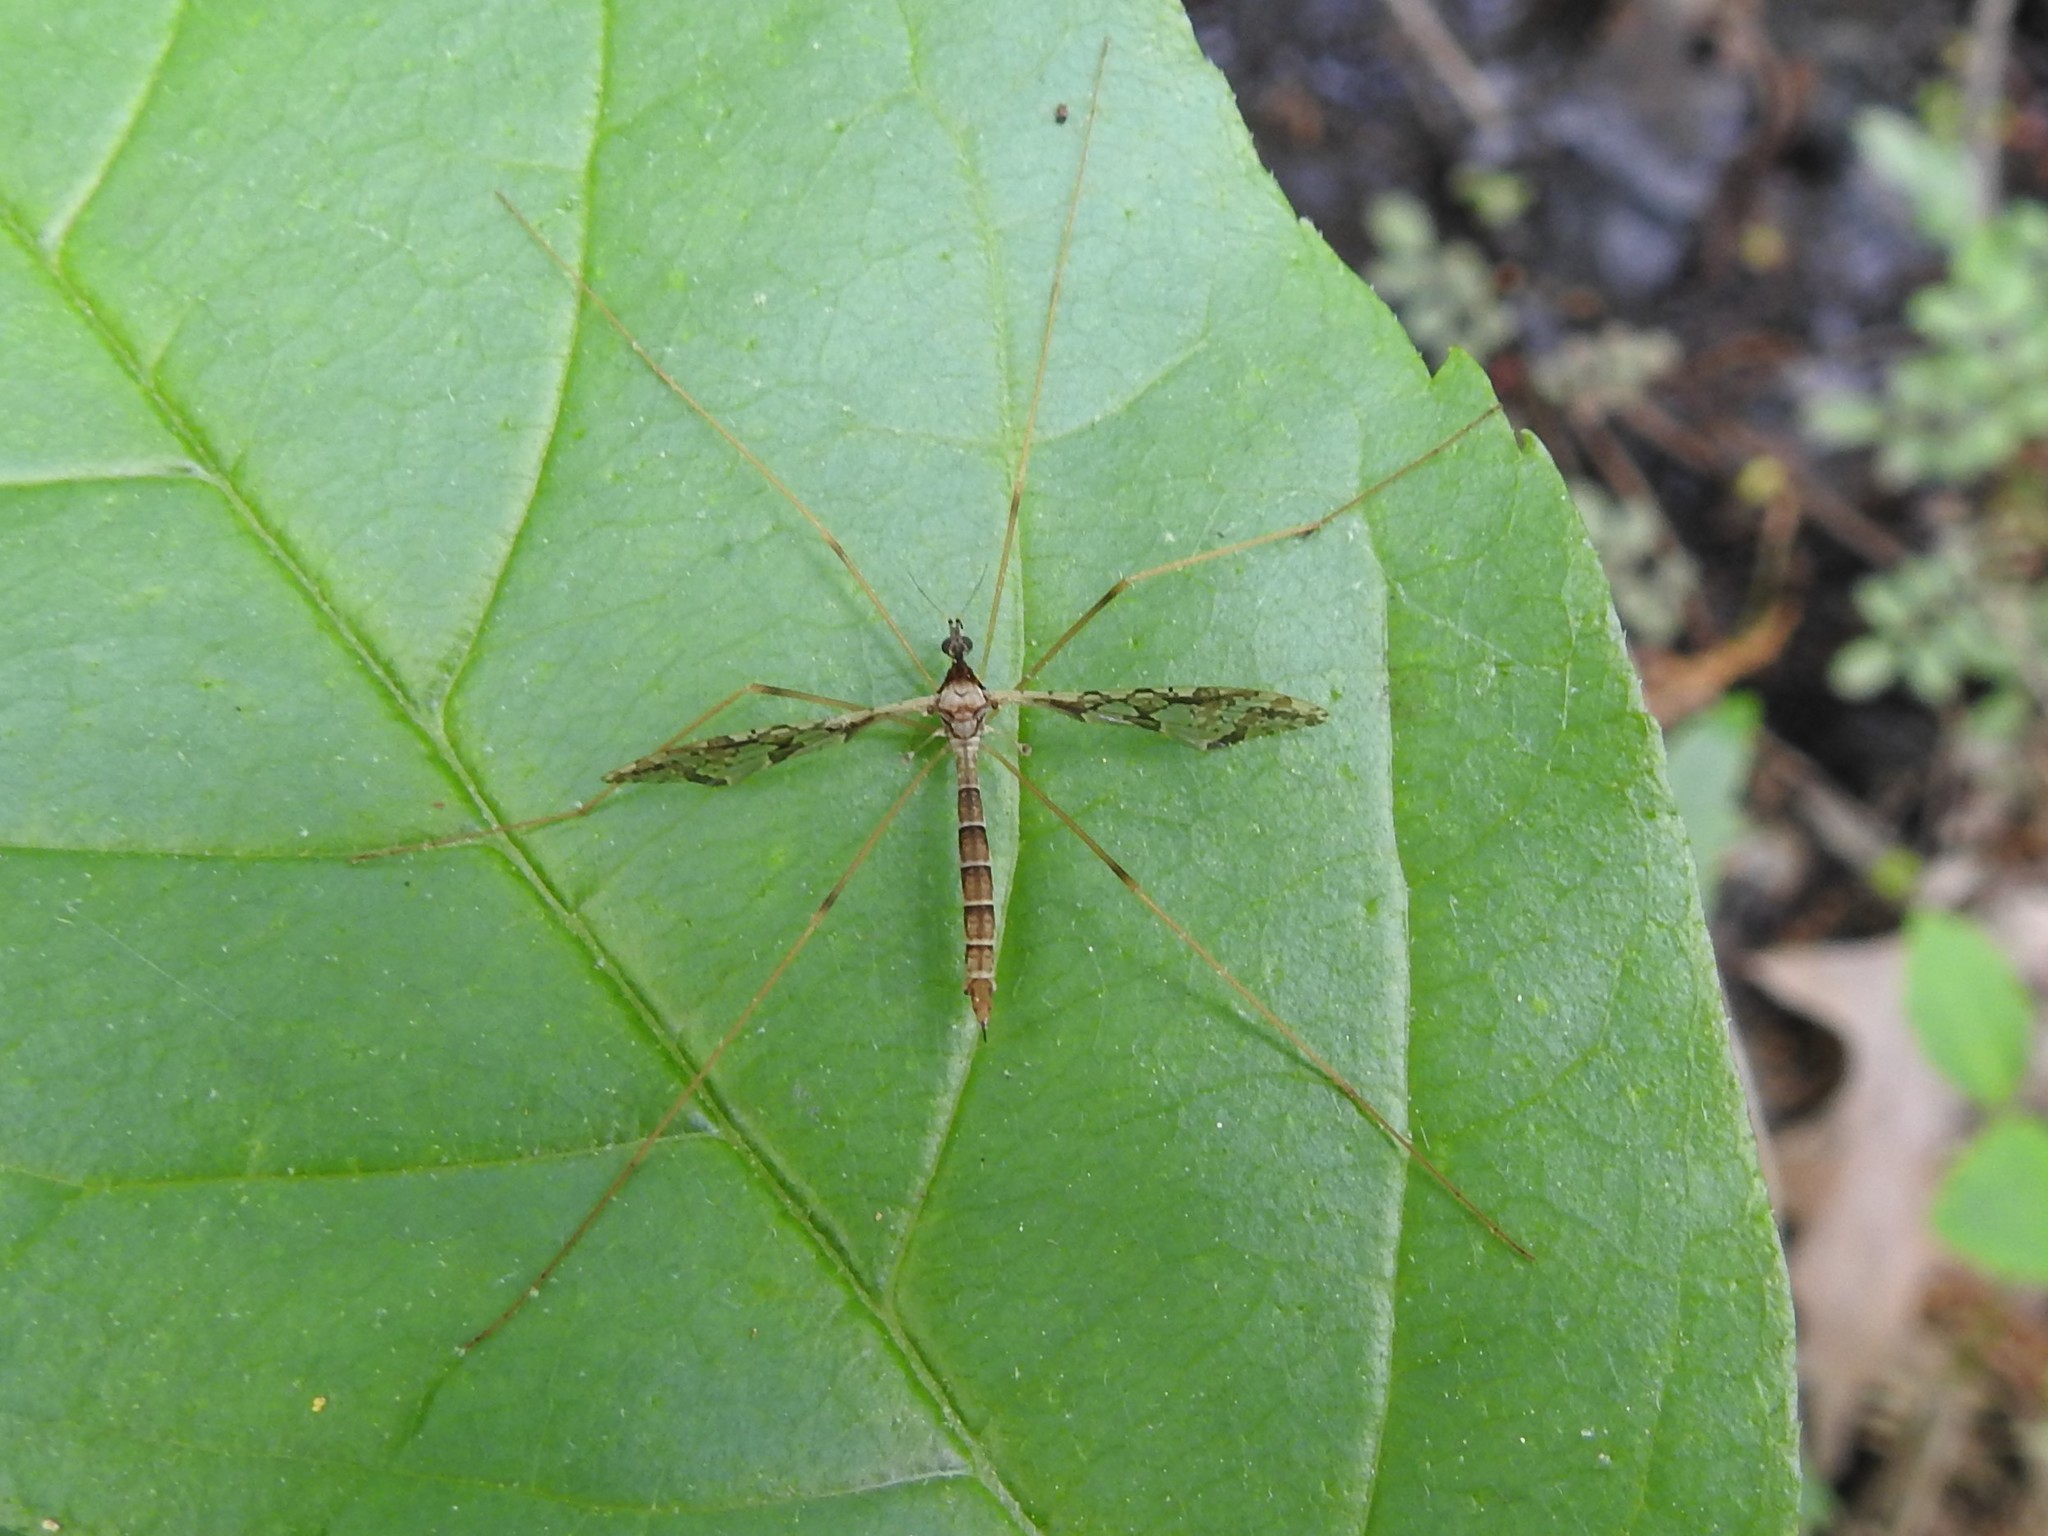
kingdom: Animalia
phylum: Arthropoda
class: Insecta
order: Diptera
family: Limoniidae
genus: Epiphragma
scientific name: Epiphragma solatrix
